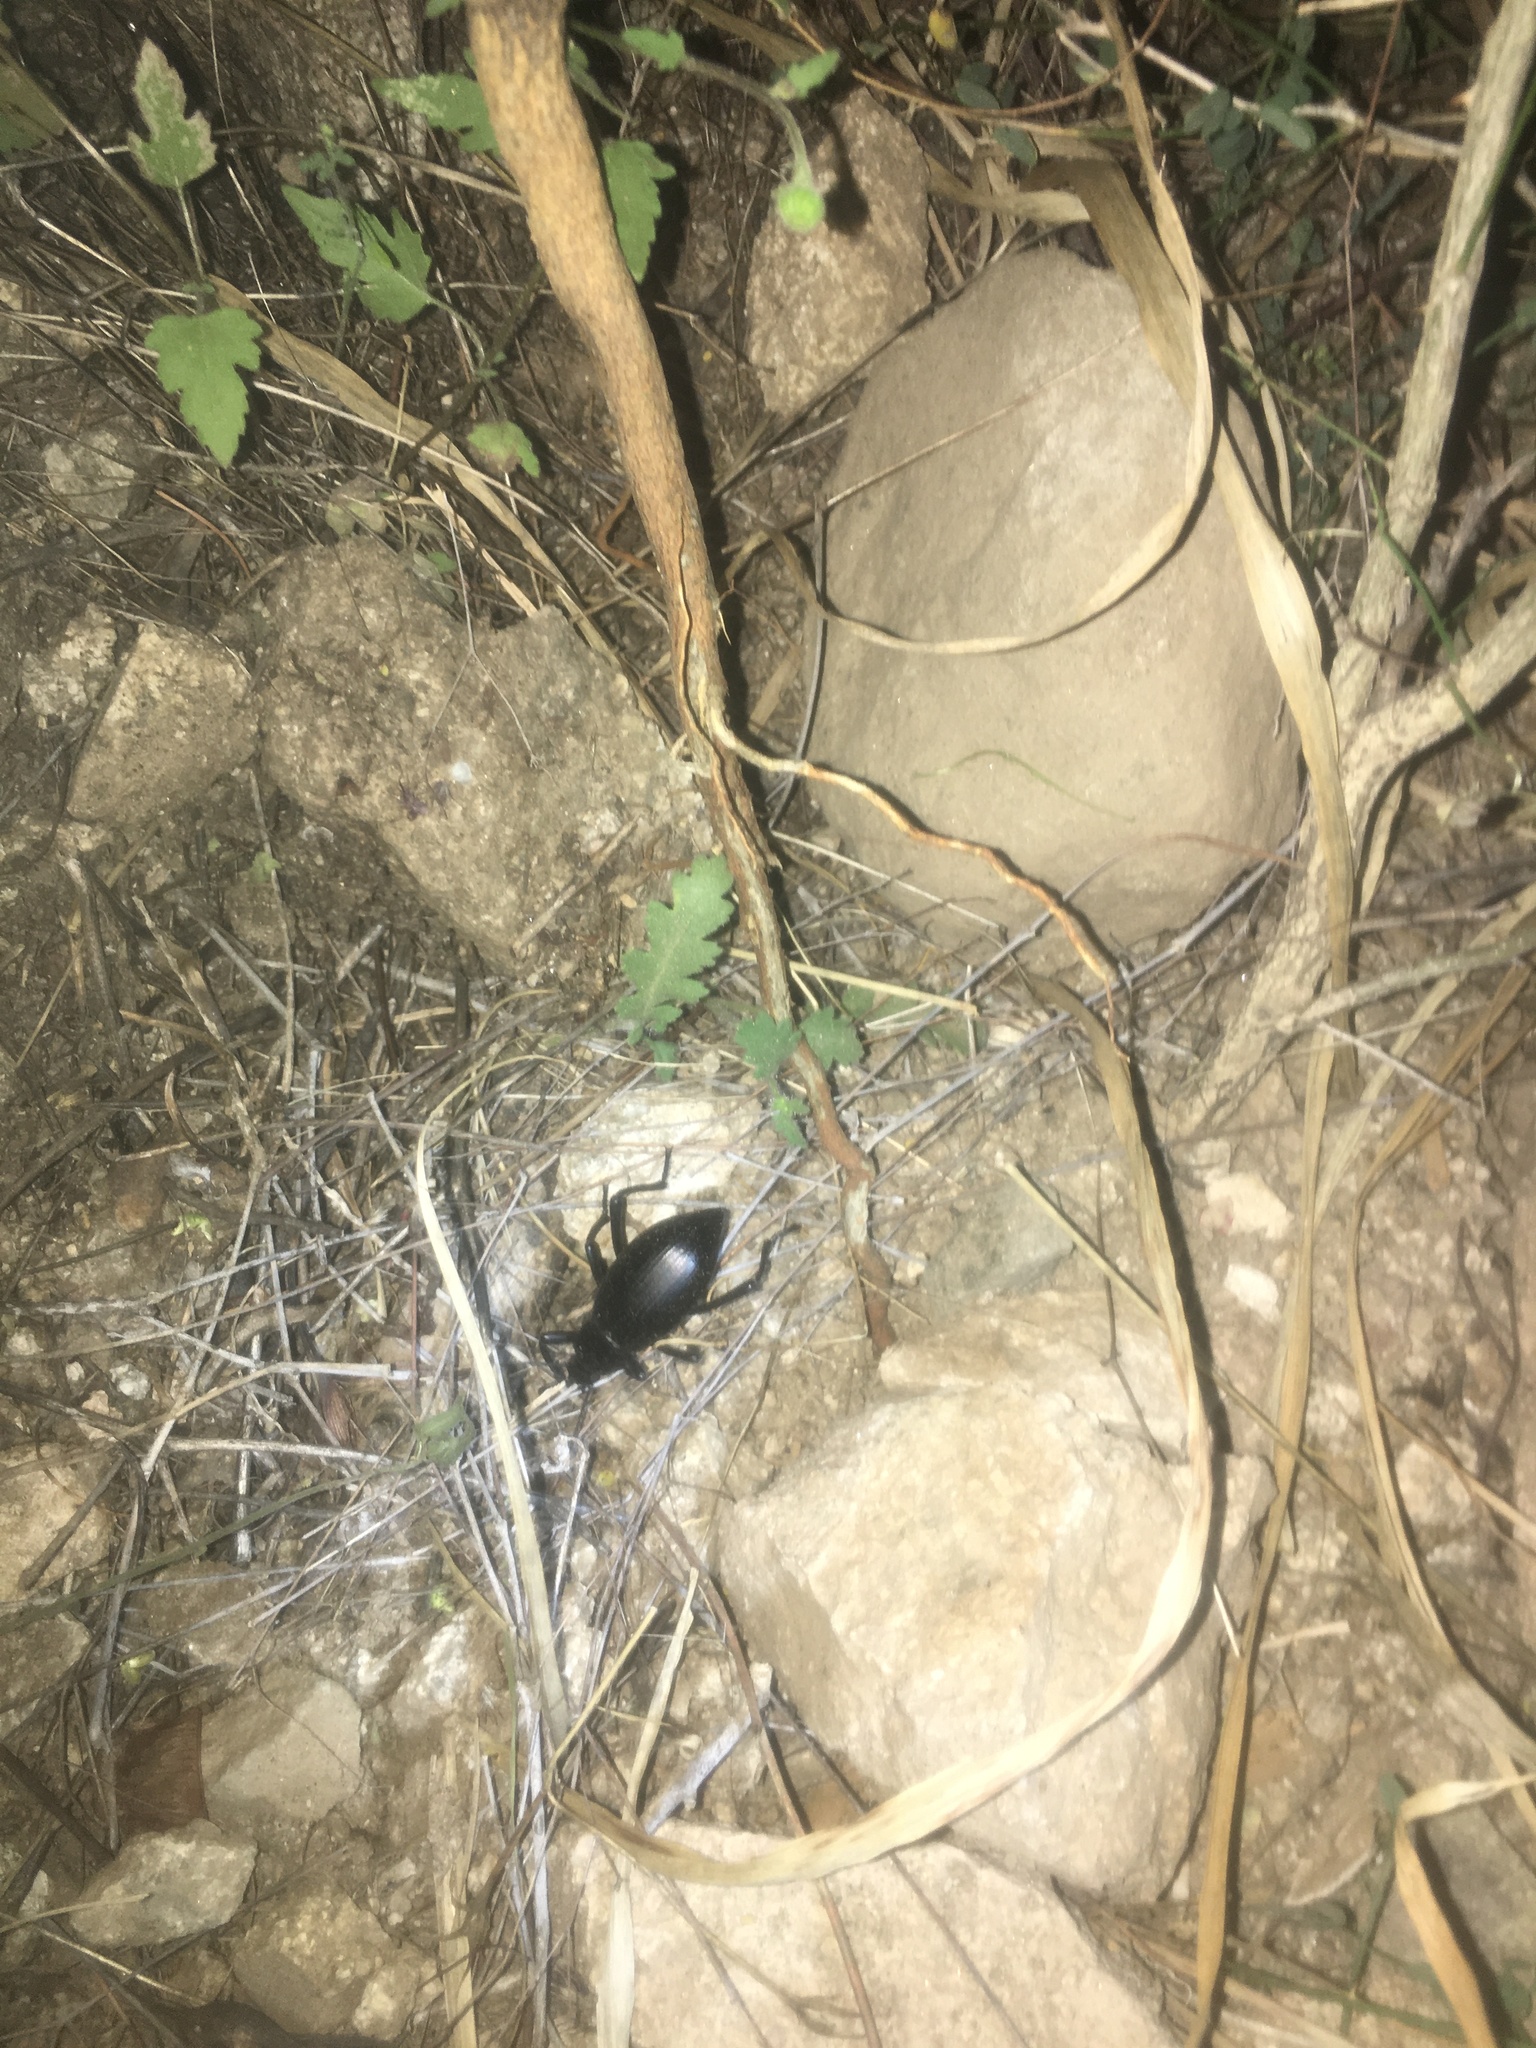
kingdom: Animalia
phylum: Arthropoda
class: Insecta
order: Coleoptera
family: Tenebrionidae
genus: Eleodes
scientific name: Eleodes eschscholtzii
